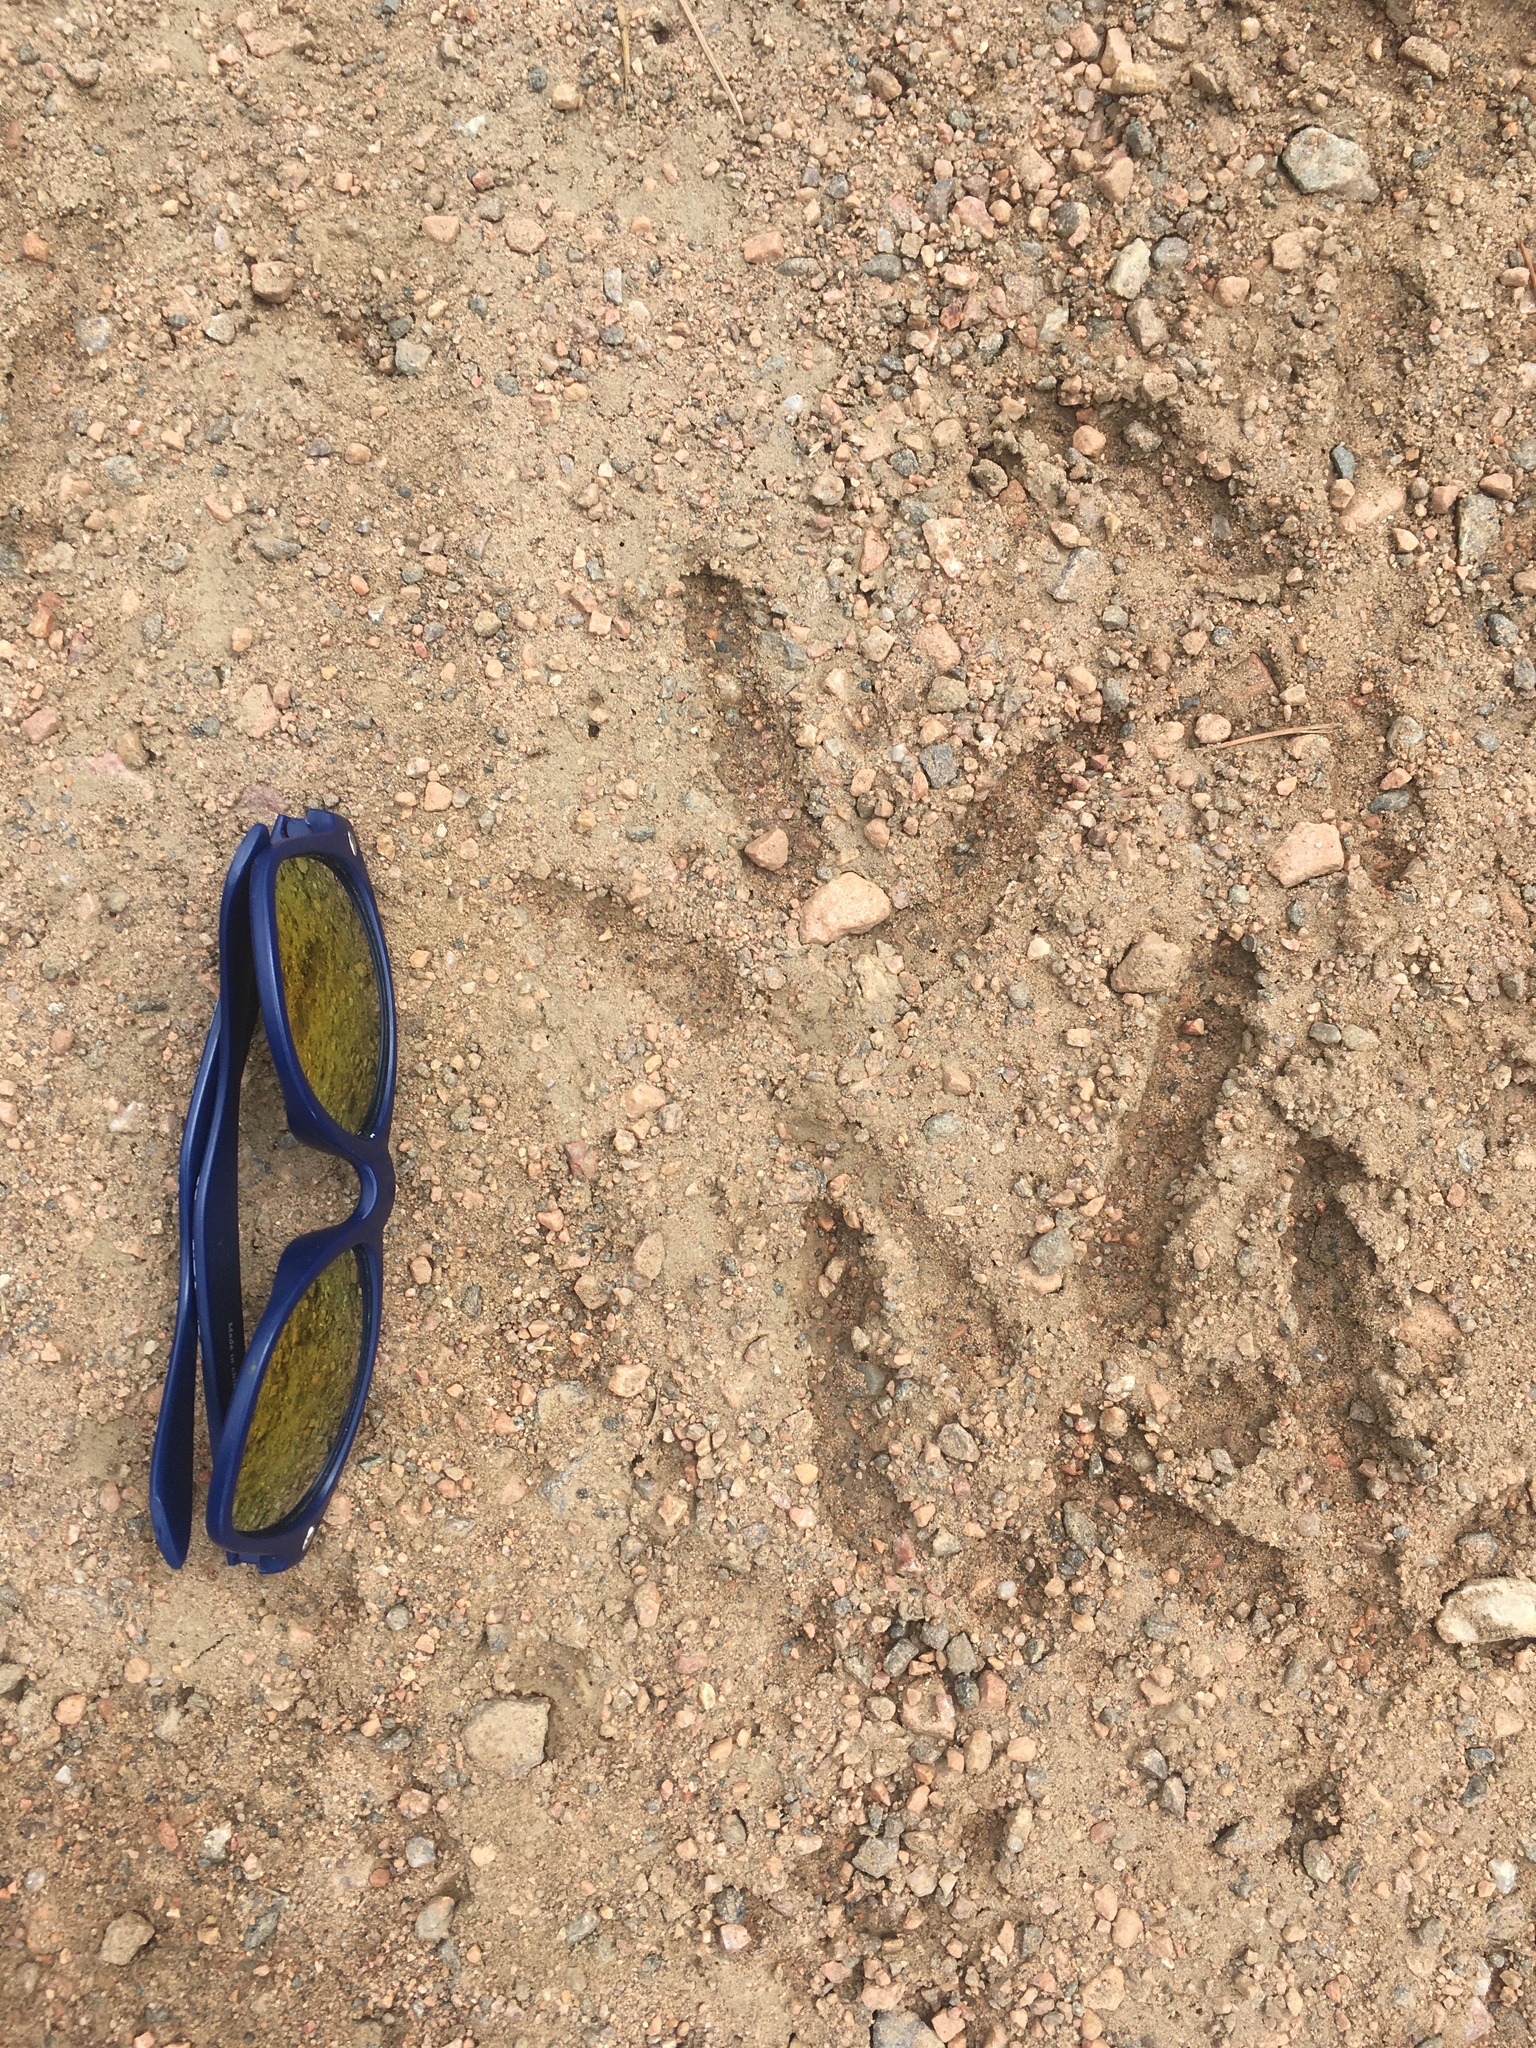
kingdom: Animalia
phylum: Chordata
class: Aves
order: Galliformes
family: Phasianidae
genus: Meleagris
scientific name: Meleagris gallopavo
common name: Wild turkey
